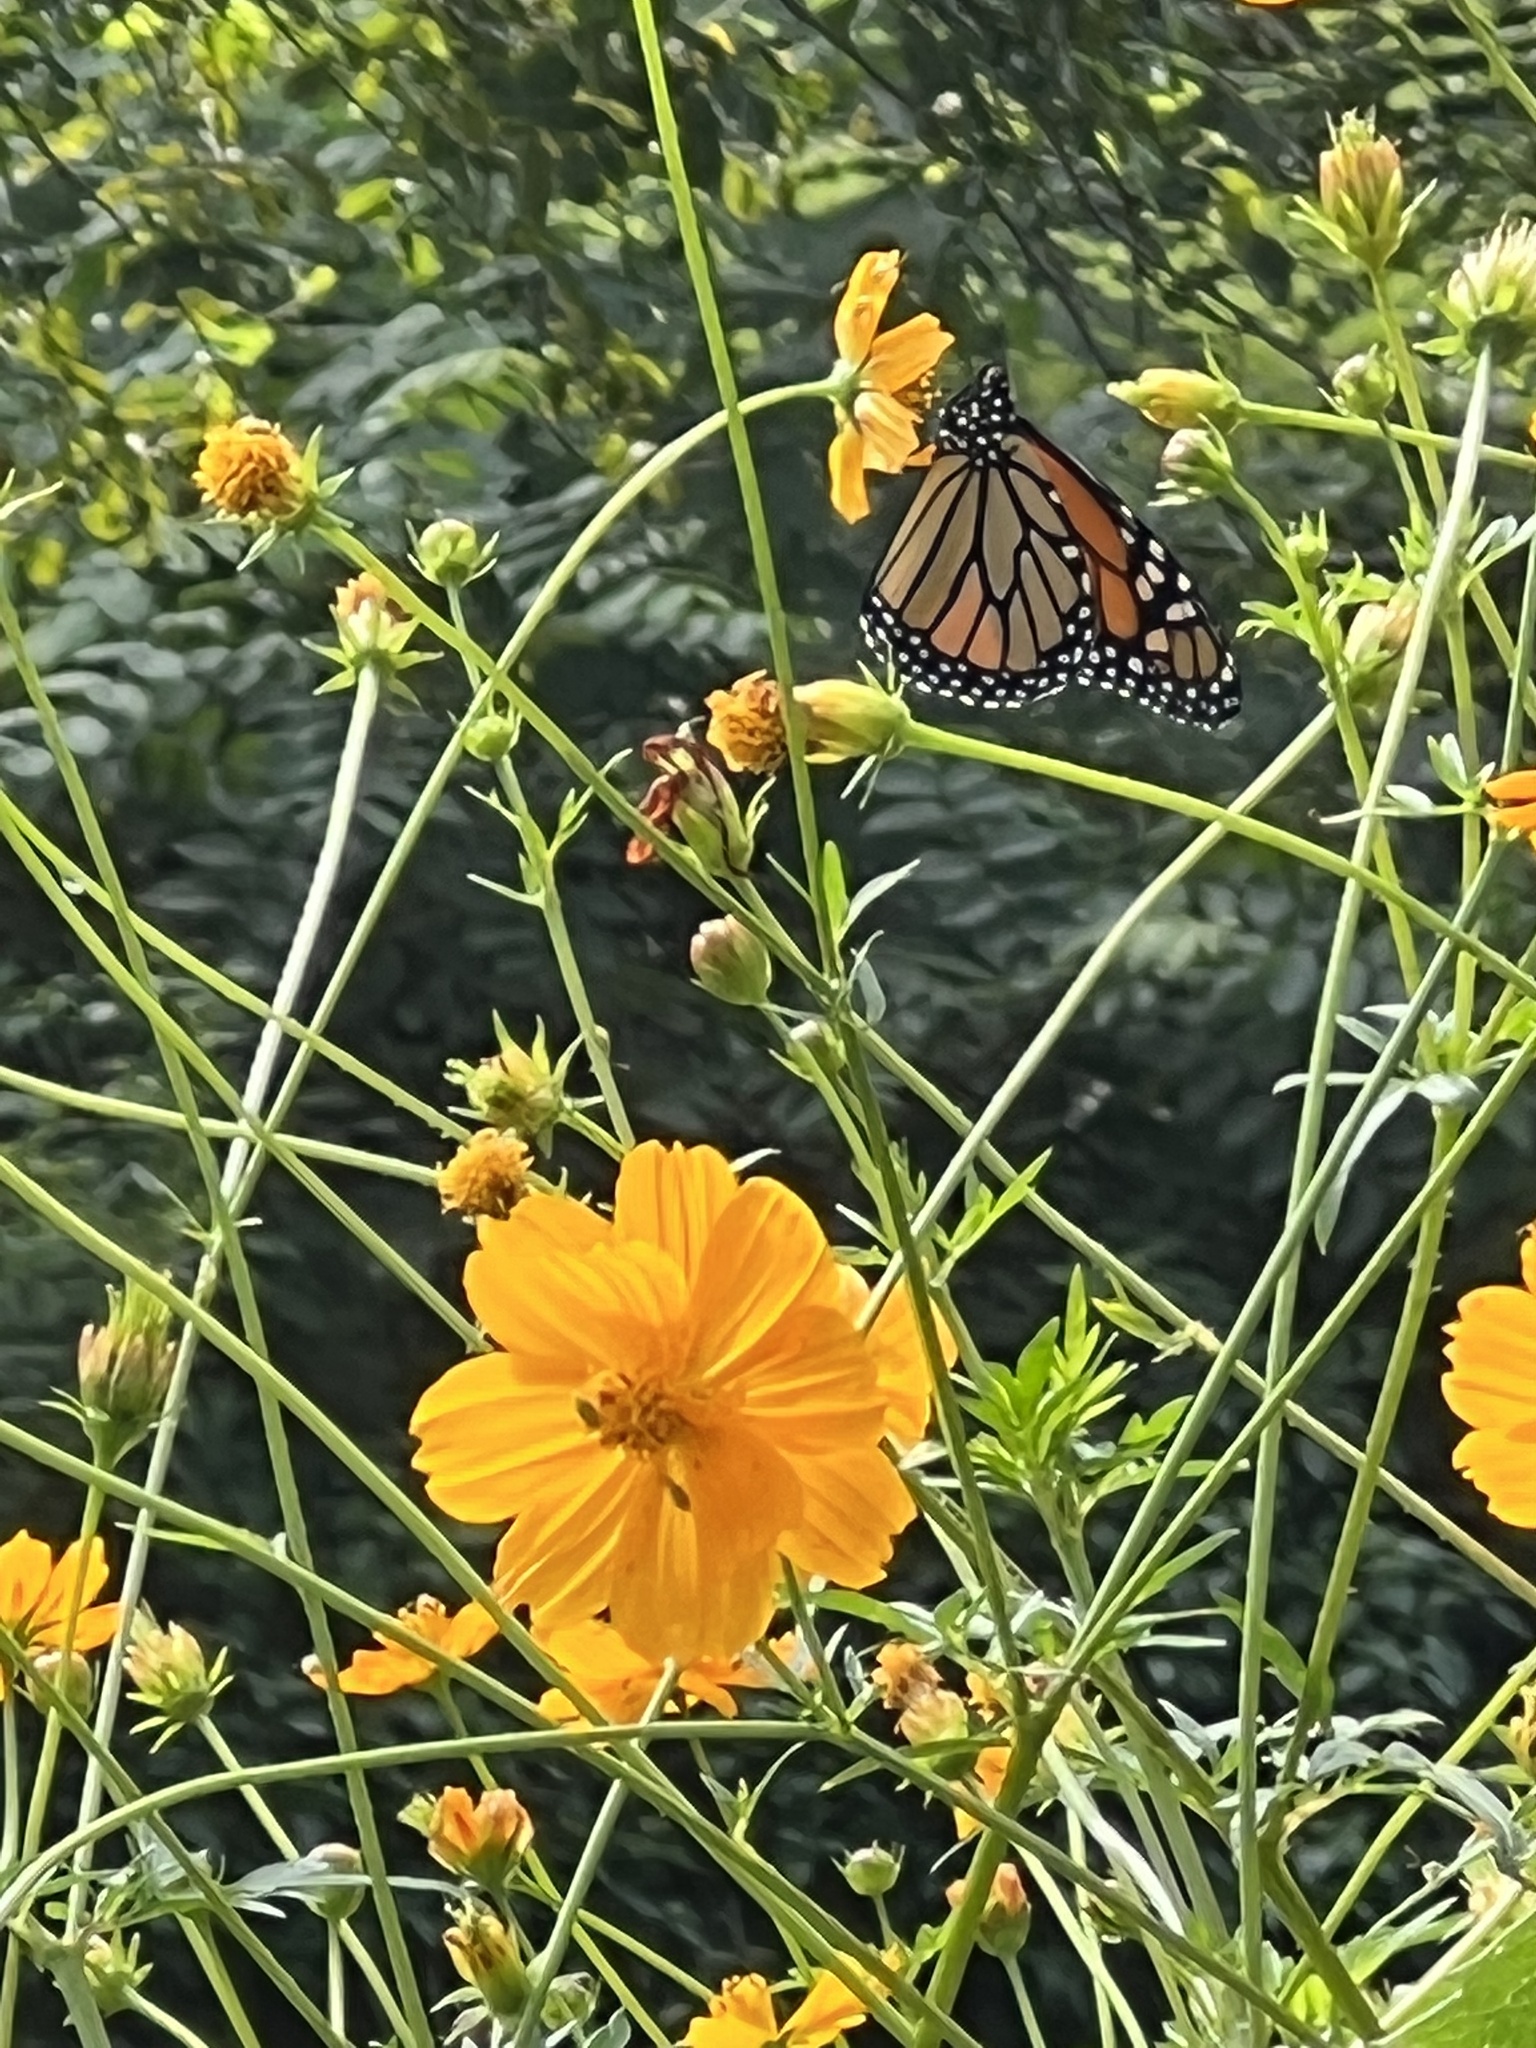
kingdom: Animalia
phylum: Arthropoda
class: Insecta
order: Lepidoptera
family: Nymphalidae
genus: Danaus
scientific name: Danaus plexippus
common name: Monarch
